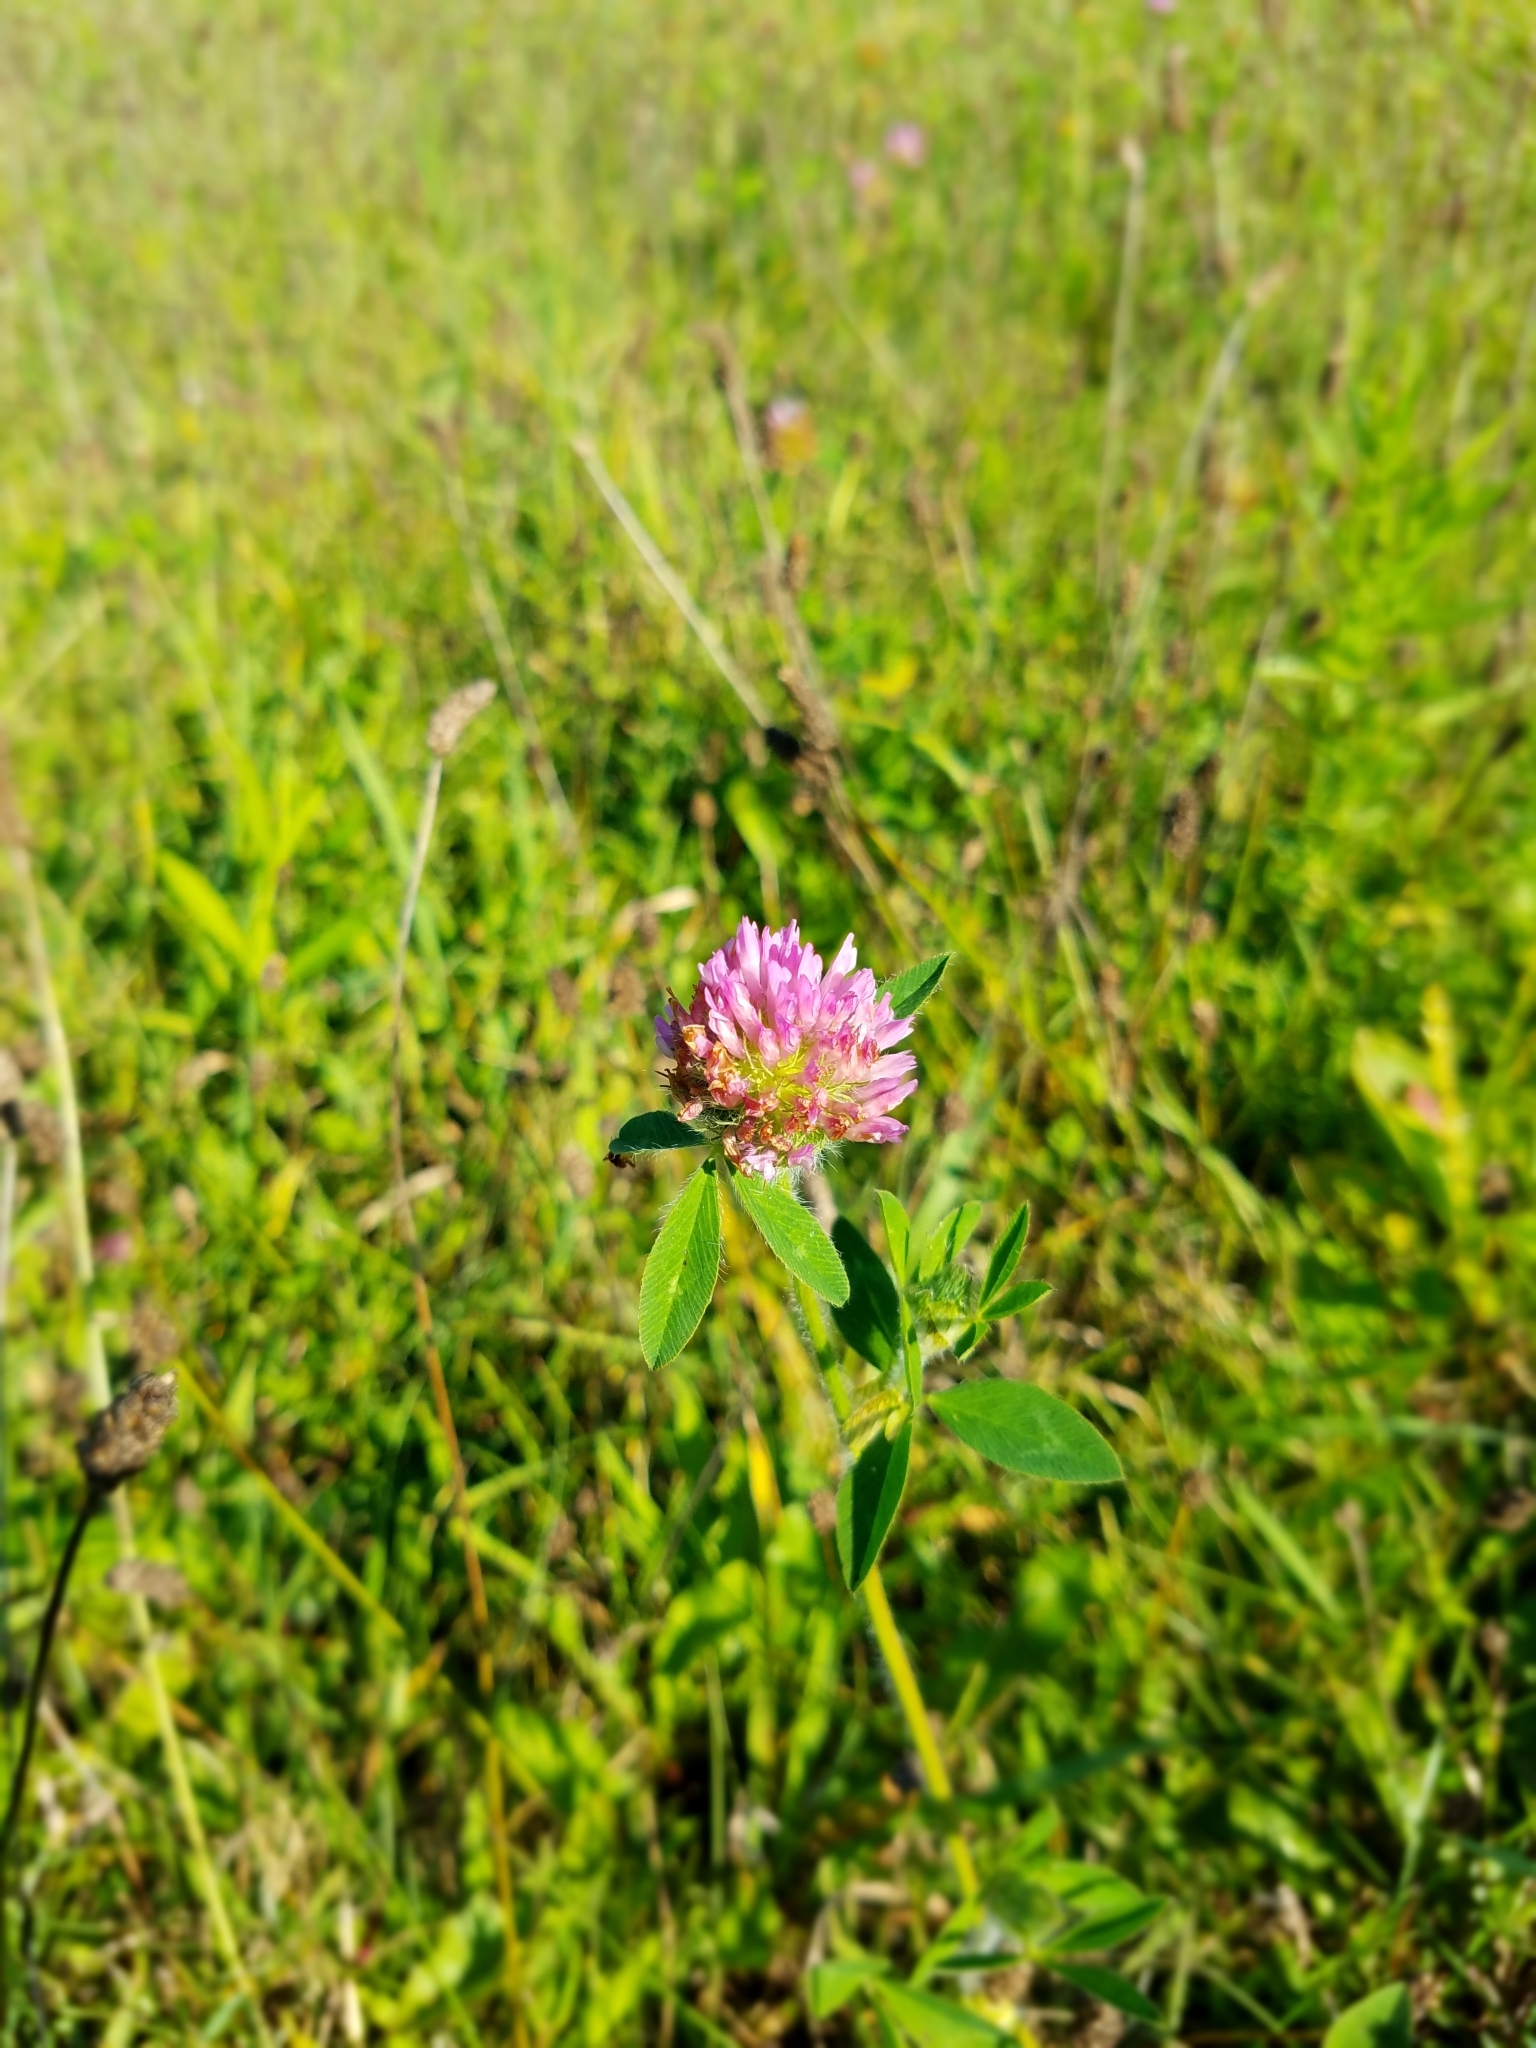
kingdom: Plantae
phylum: Tracheophyta
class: Magnoliopsida
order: Fabales
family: Fabaceae
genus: Trifolium
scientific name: Trifolium pratense
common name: Red clover
